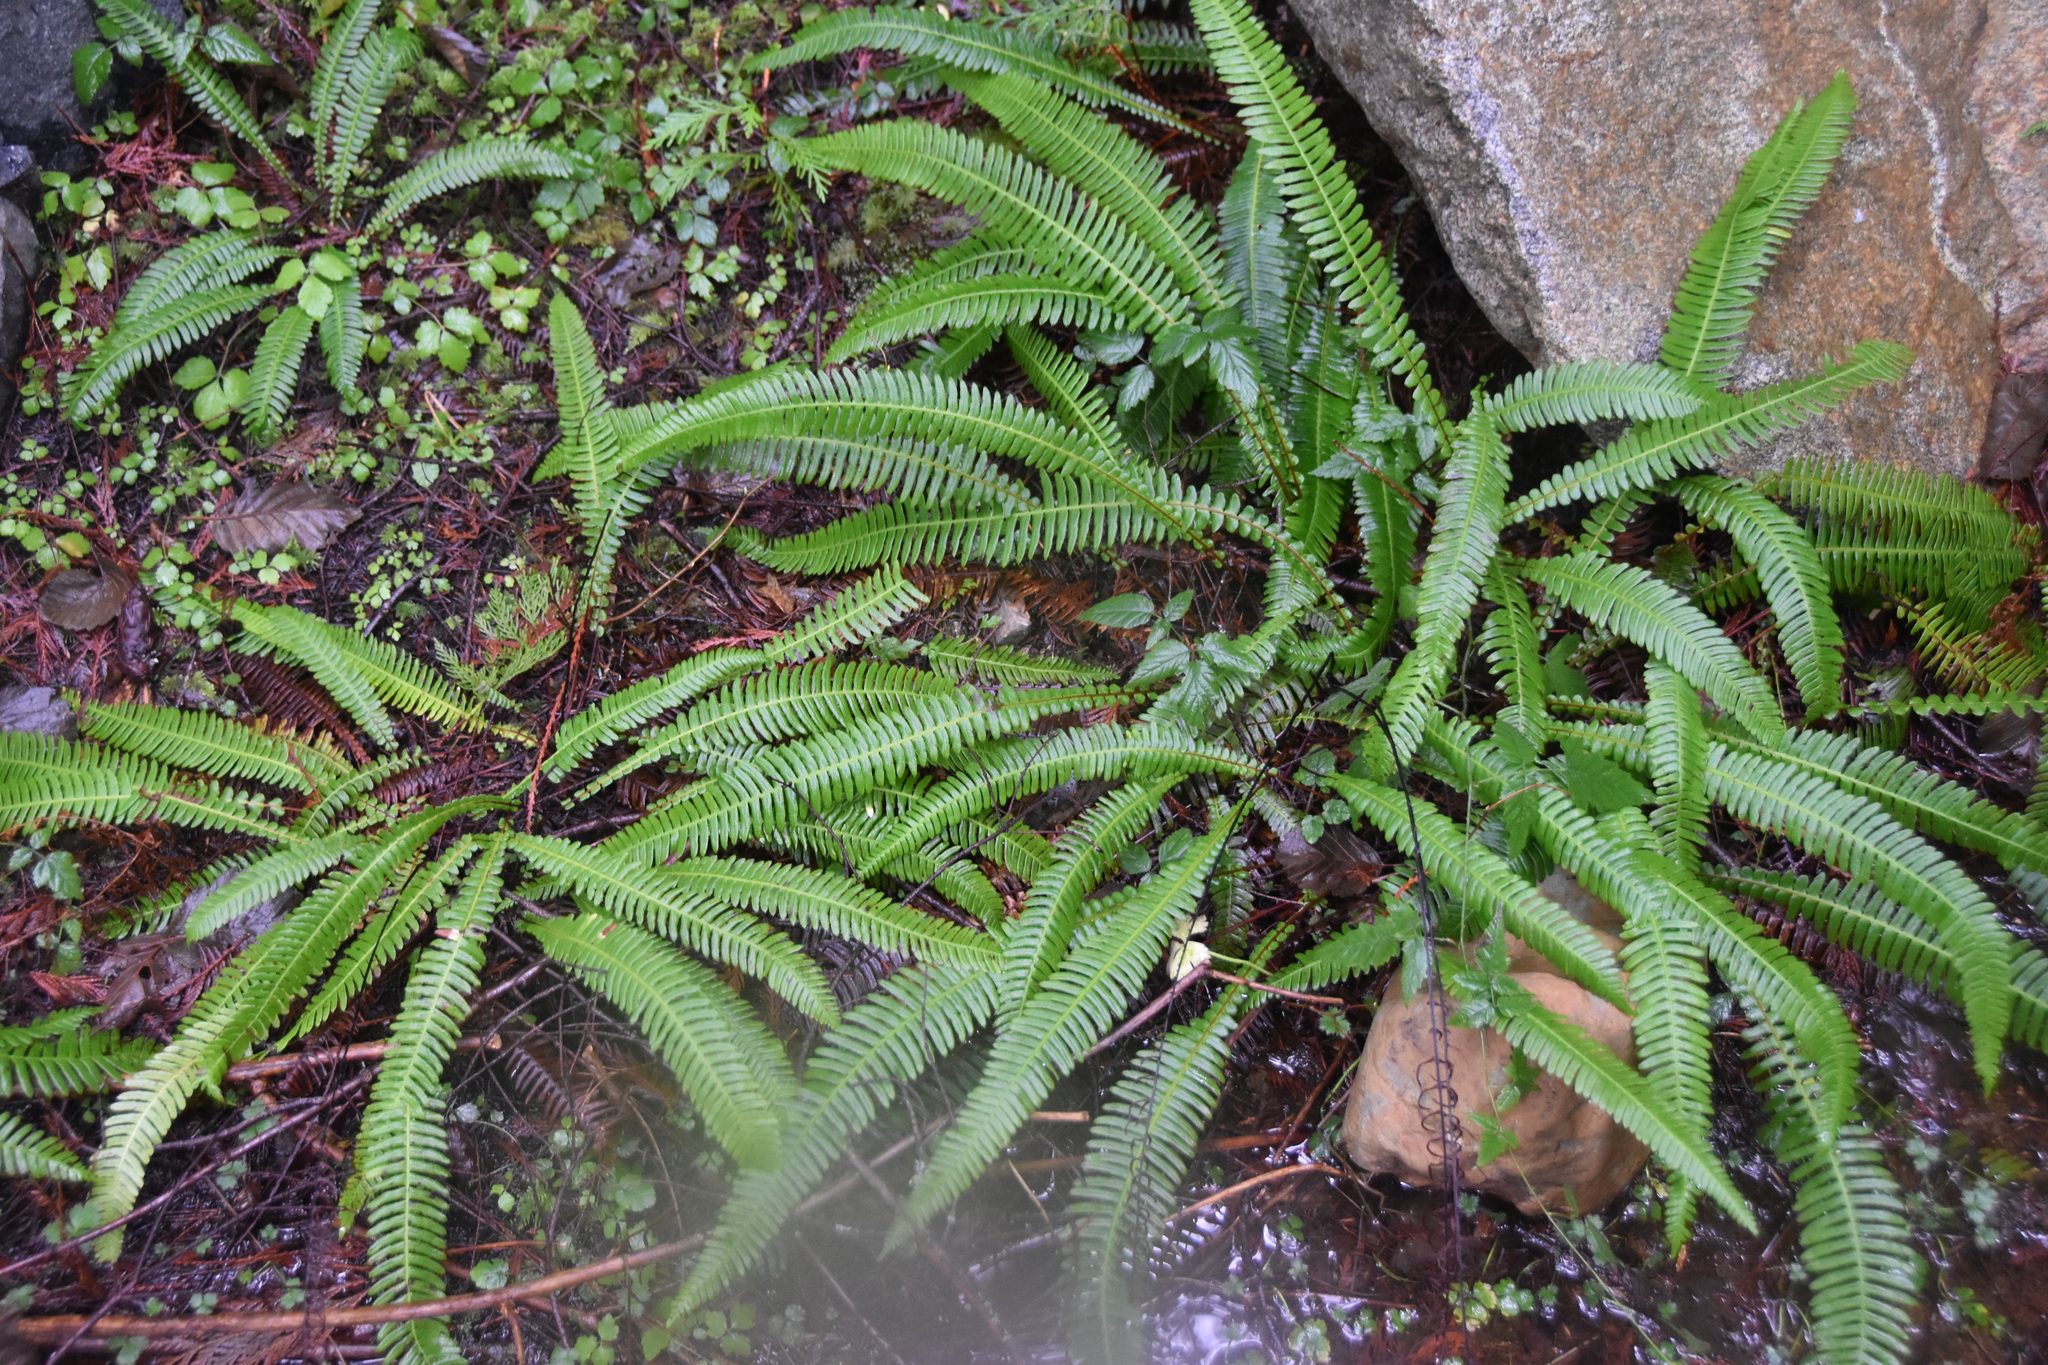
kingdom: Plantae
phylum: Tracheophyta
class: Polypodiopsida
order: Polypodiales
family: Blechnaceae
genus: Struthiopteris
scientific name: Struthiopteris spicant
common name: Deer fern
